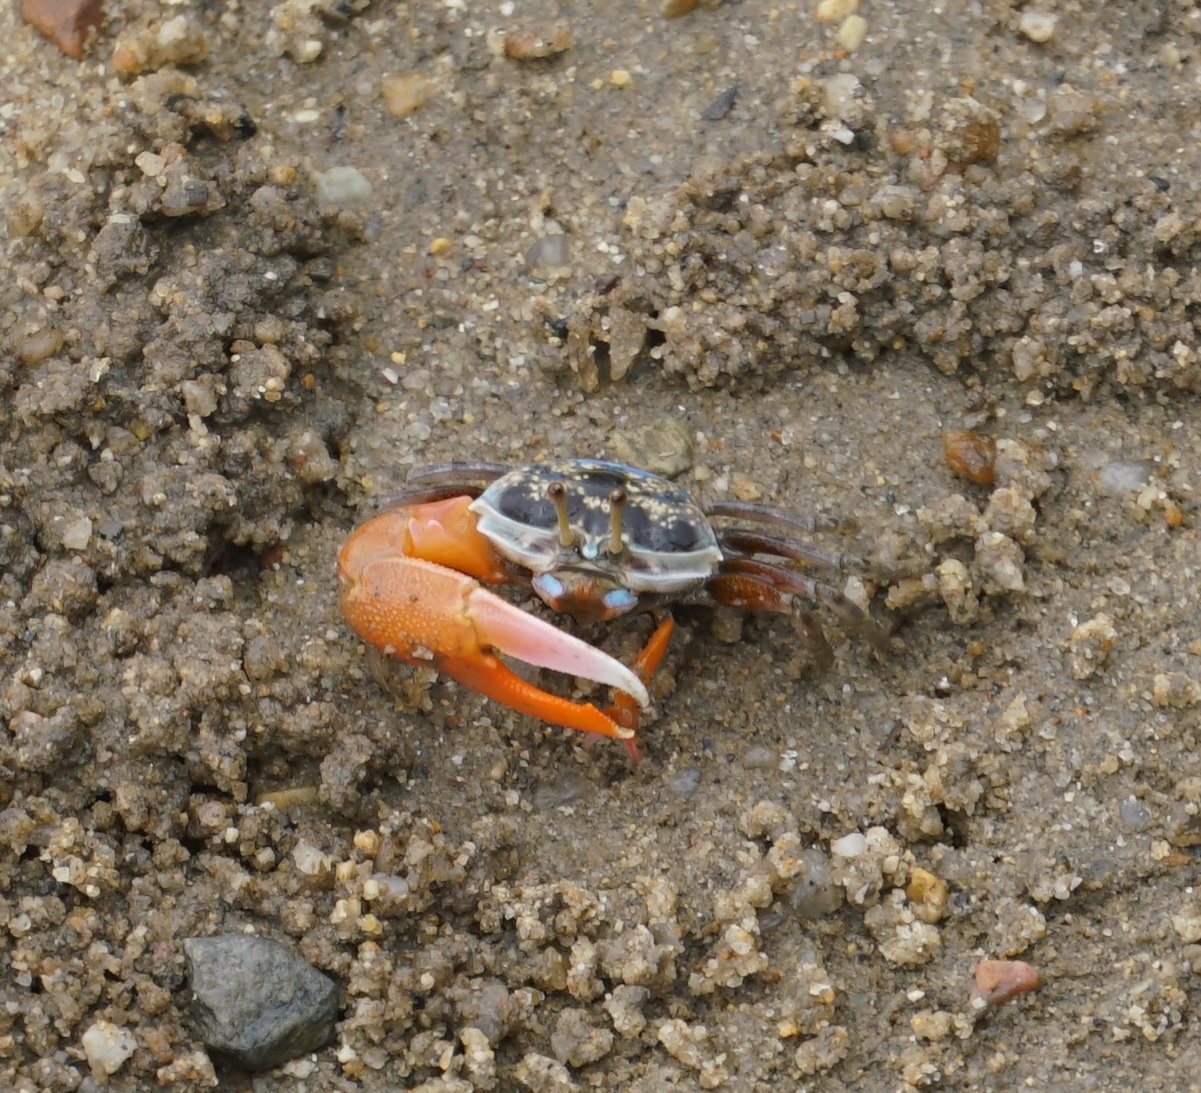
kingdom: Animalia
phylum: Arthropoda
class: Malacostraca
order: Decapoda
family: Ocypodidae
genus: Gelasimus
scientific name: Gelasimus vomeris
